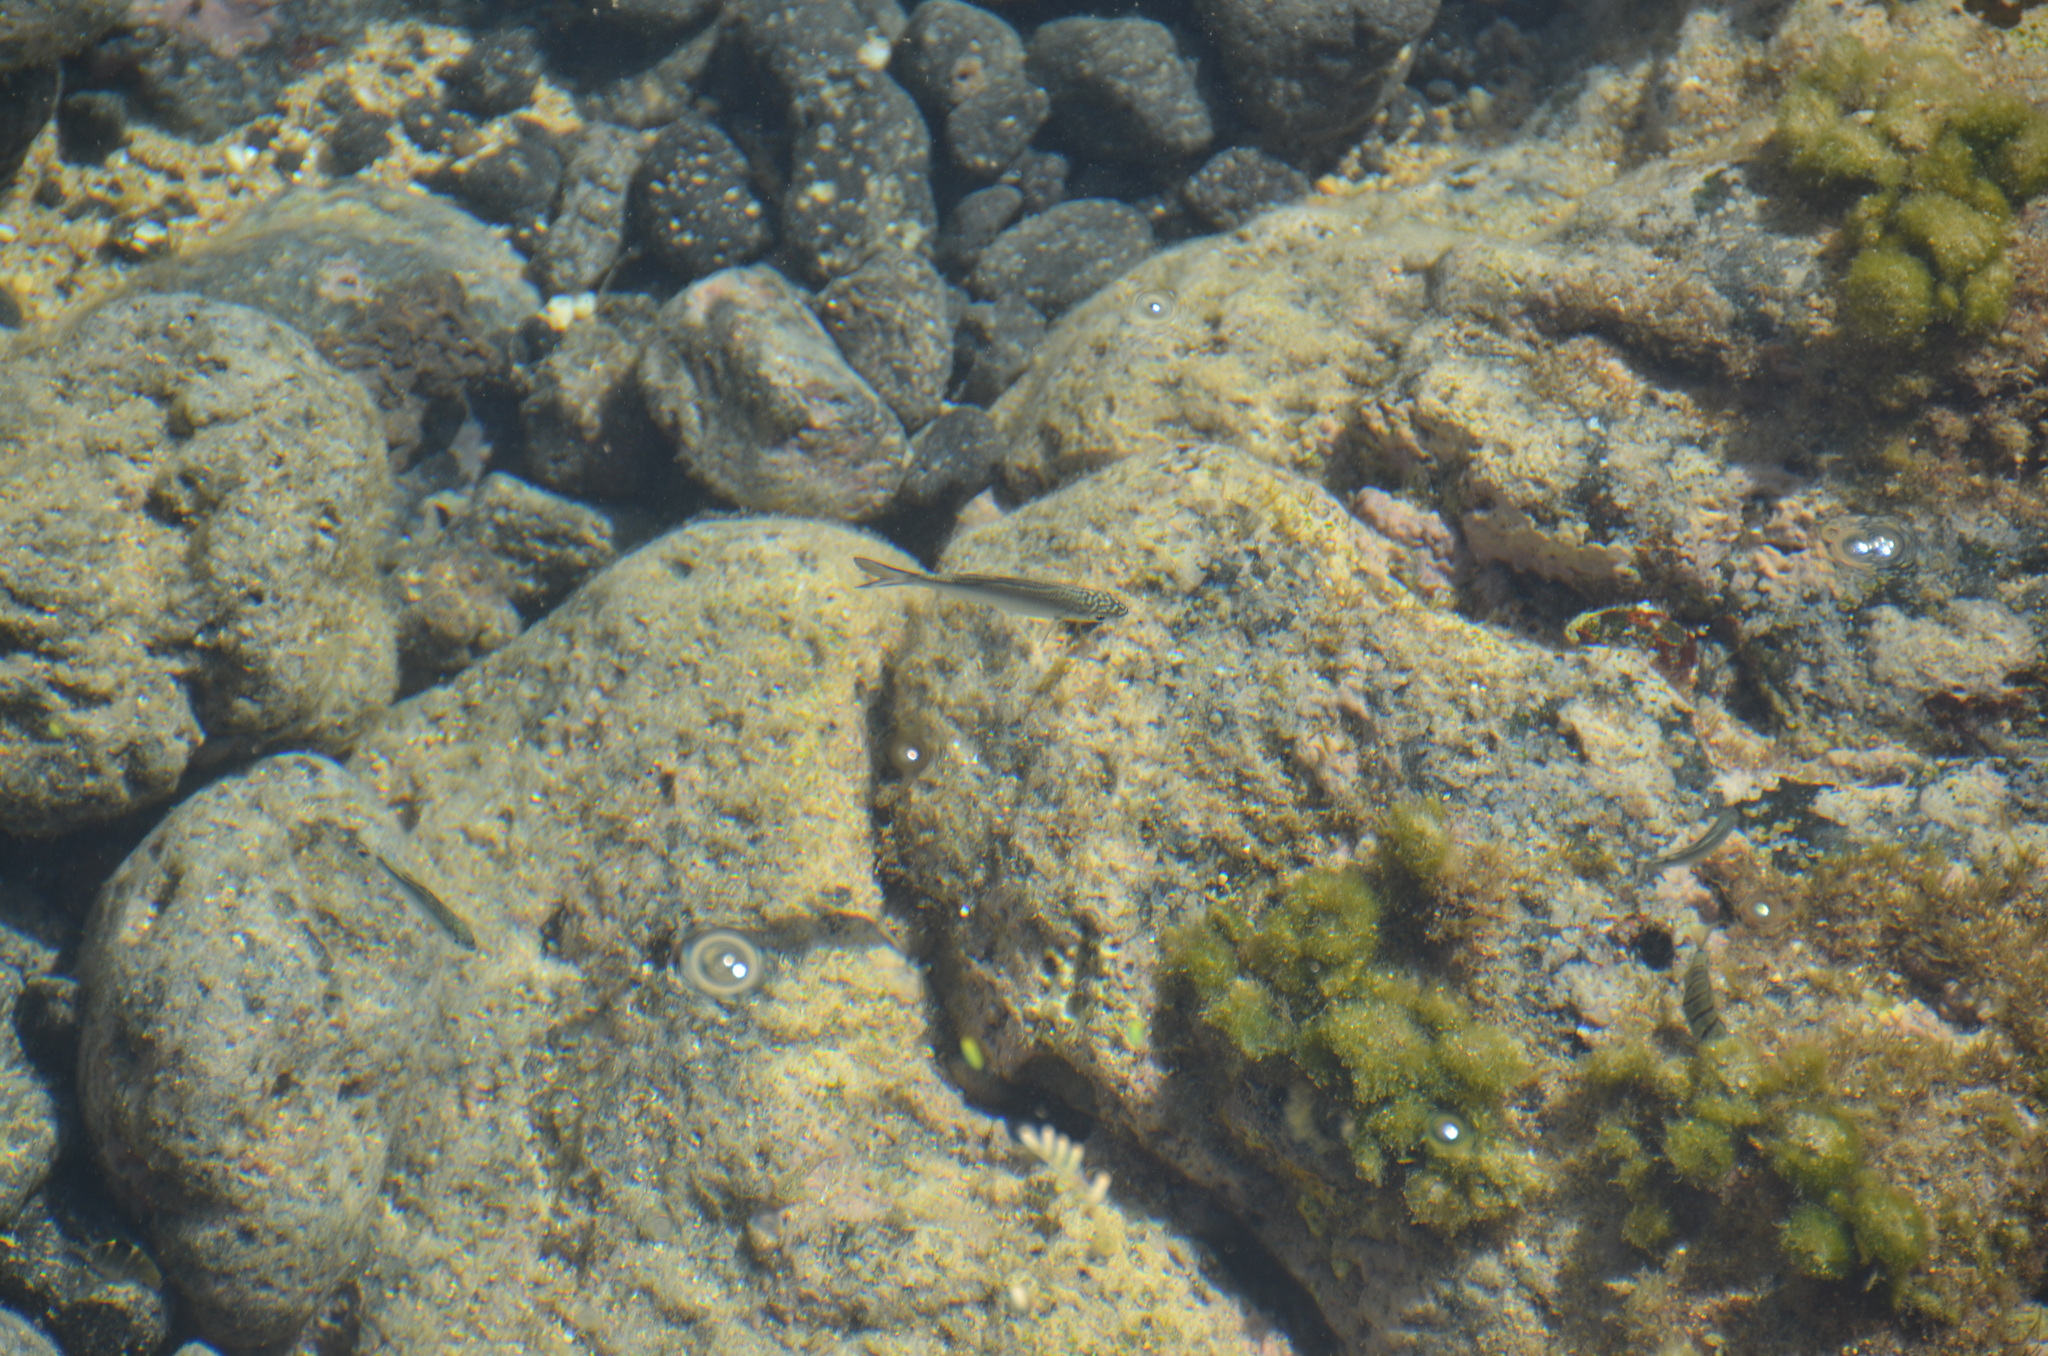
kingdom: Animalia
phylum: Chordata
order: Perciformes
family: Kuhliidae
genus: Kuhlia
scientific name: Kuhlia sandvicensis
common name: Hawaiian flagtail
